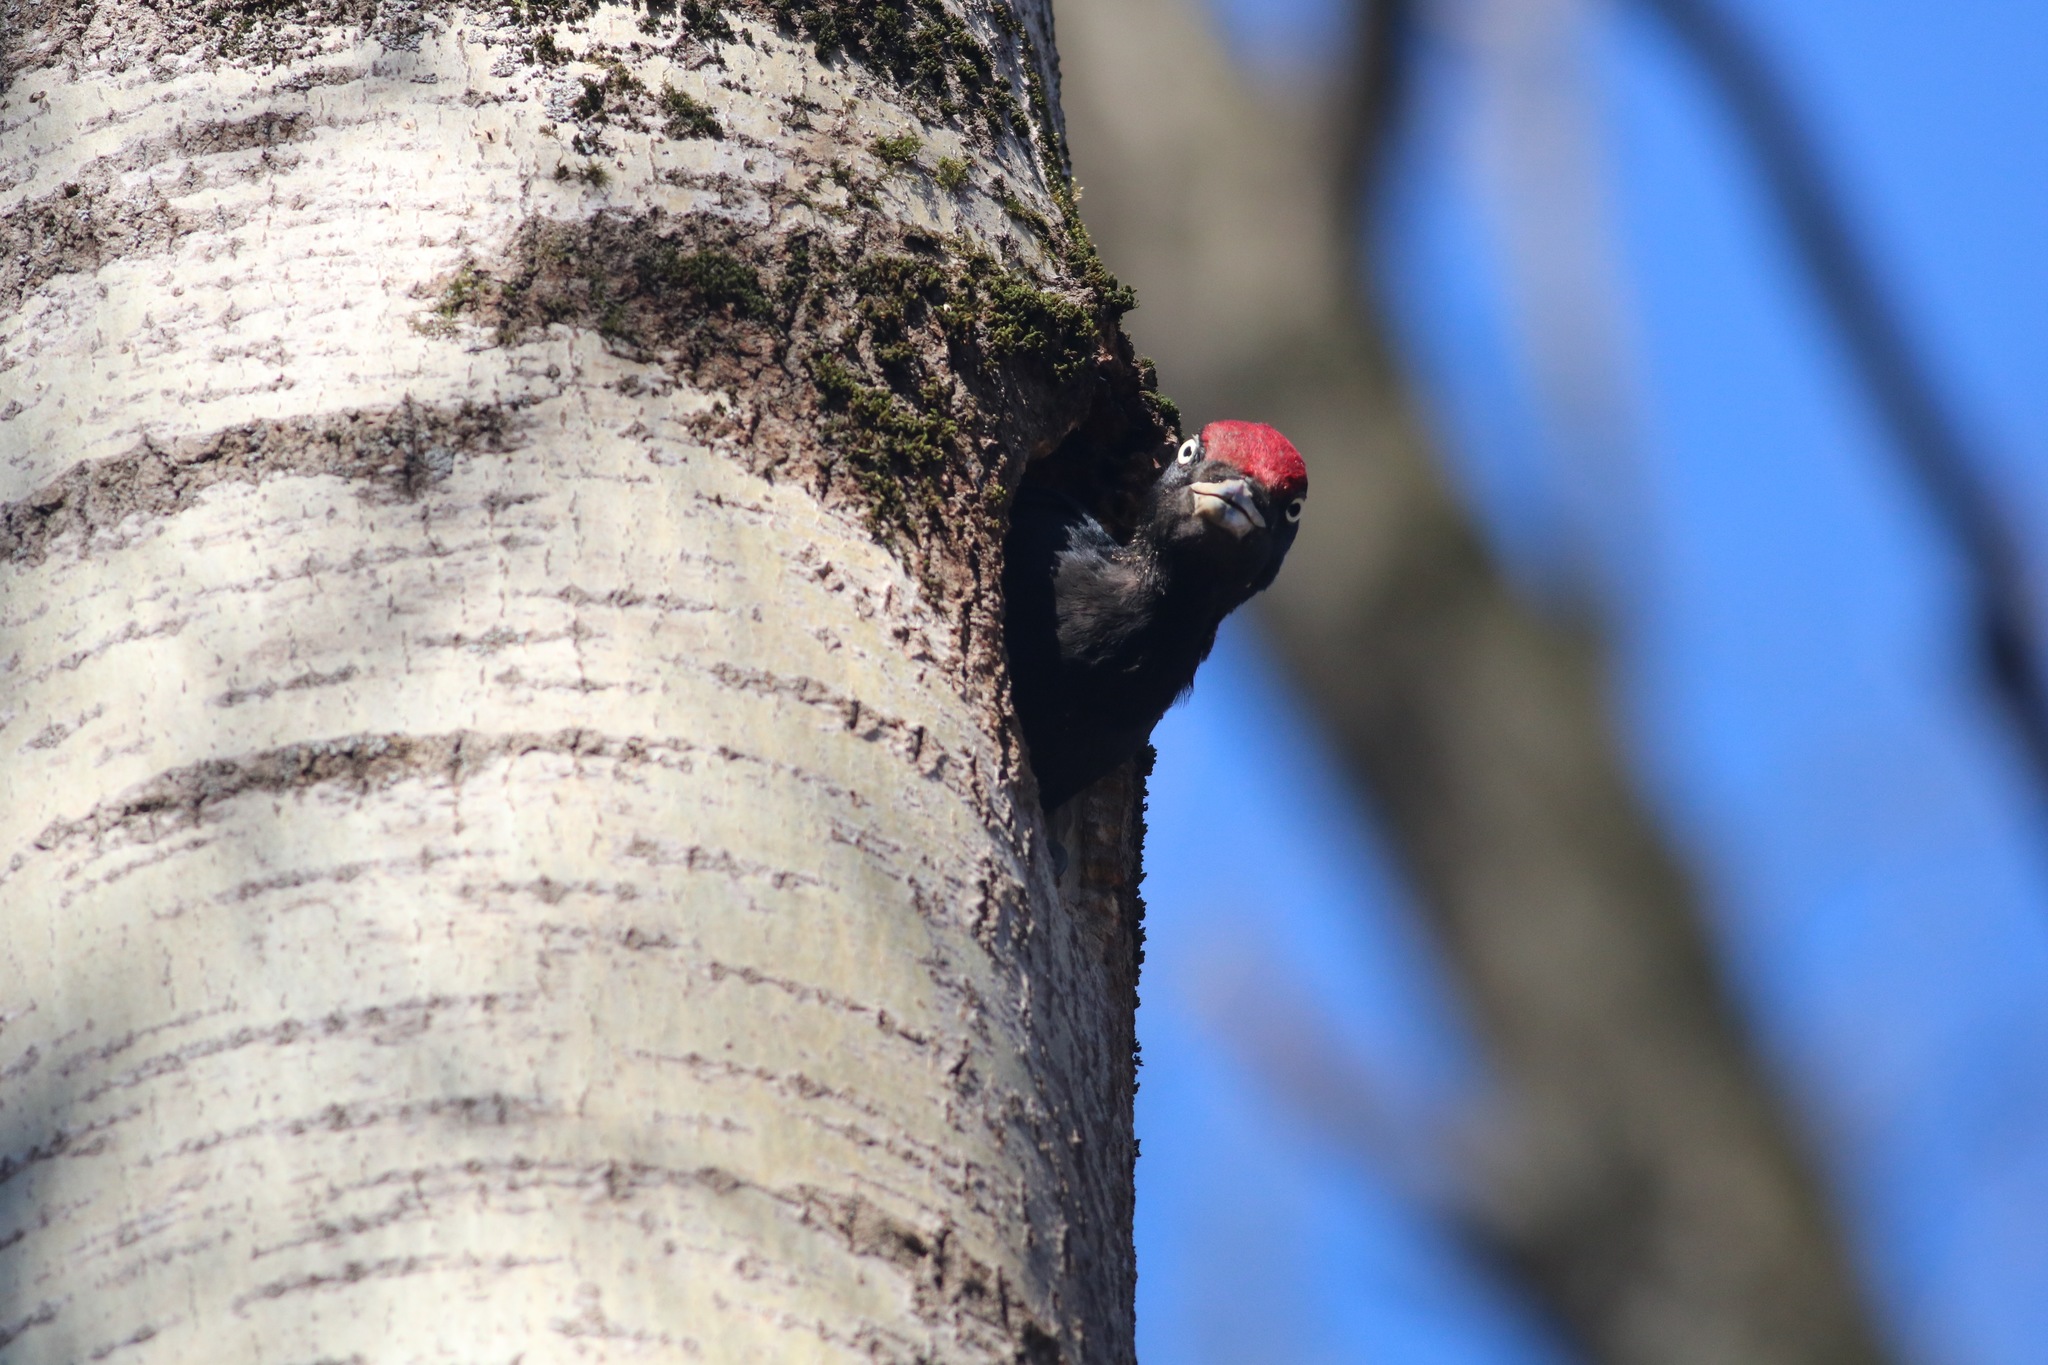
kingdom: Animalia
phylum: Chordata
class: Aves
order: Piciformes
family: Picidae
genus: Dryocopus
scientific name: Dryocopus martius
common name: Black woodpecker
